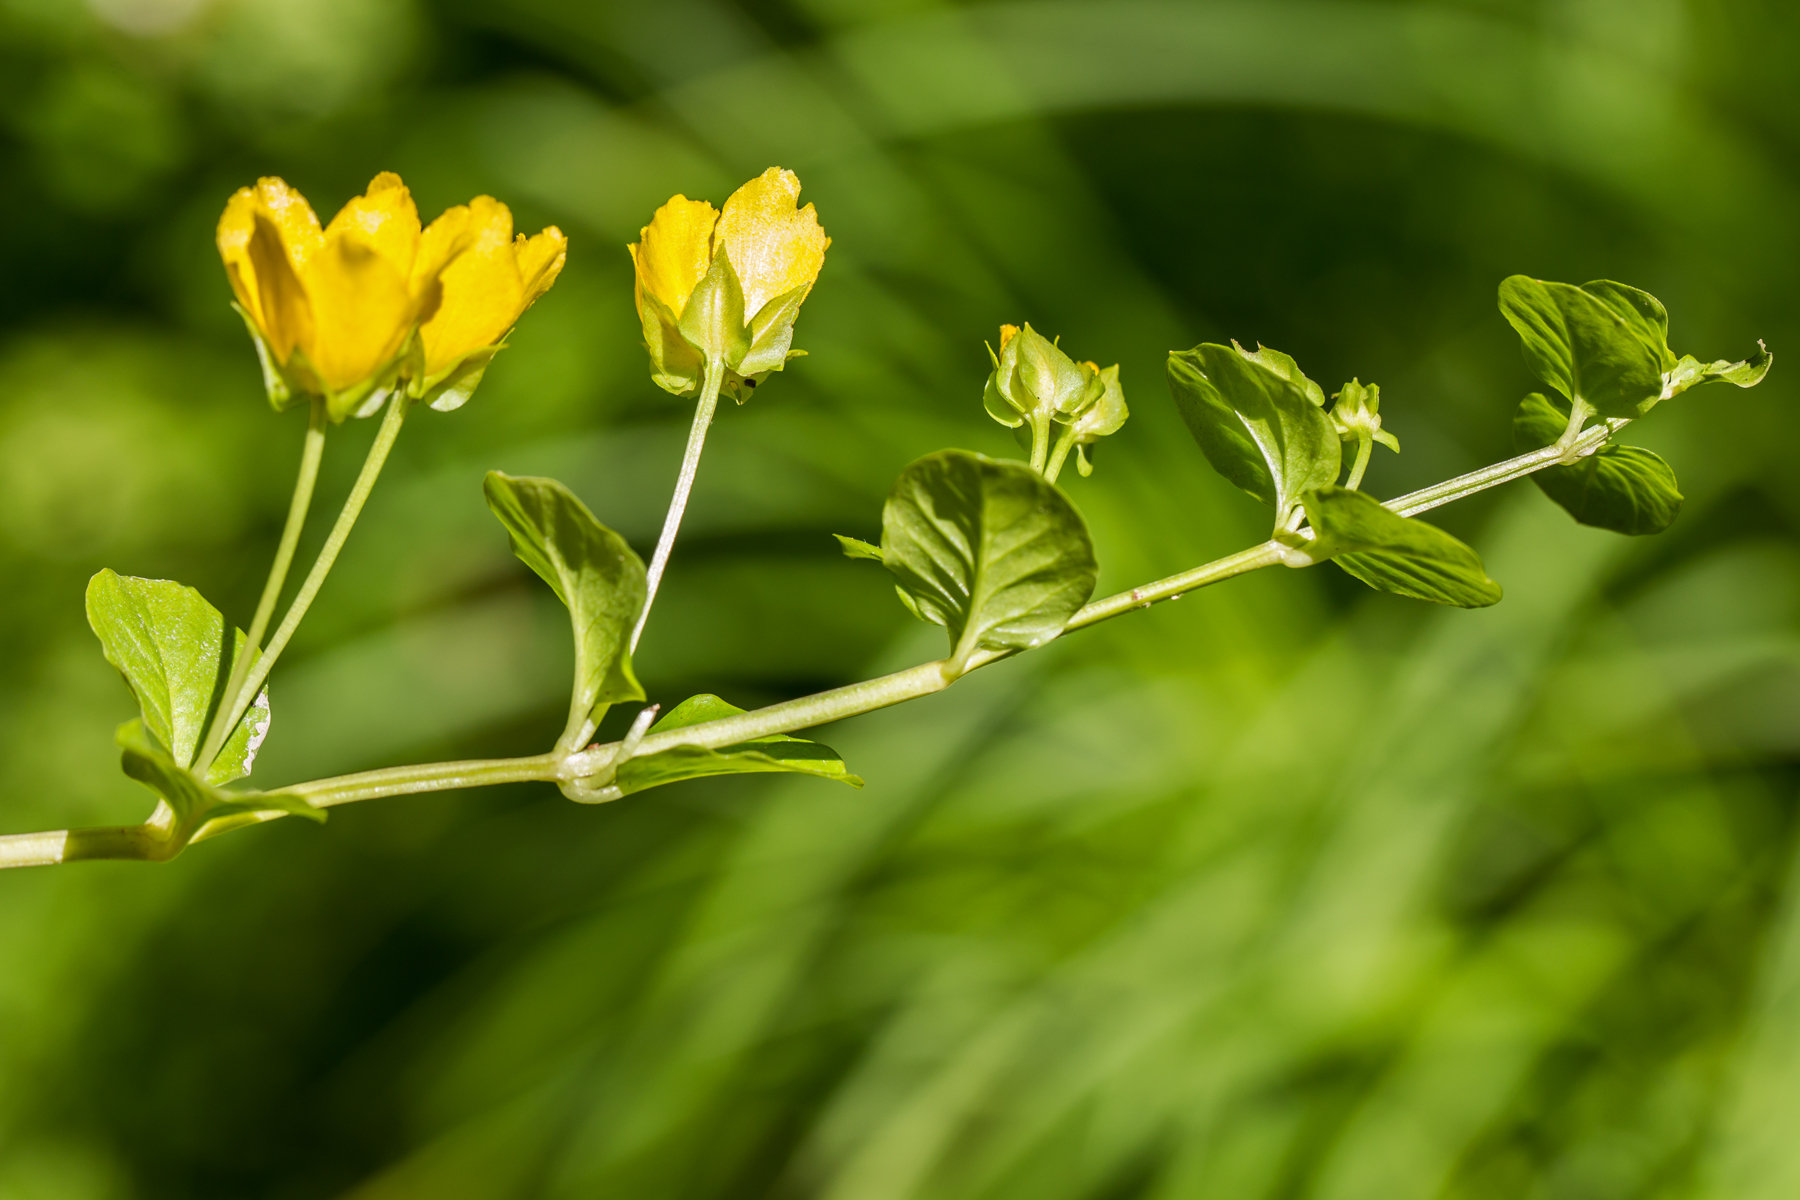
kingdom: Plantae
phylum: Tracheophyta
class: Magnoliopsida
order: Ericales
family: Primulaceae
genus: Lysimachia
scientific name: Lysimachia nummularia
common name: Moneywort
